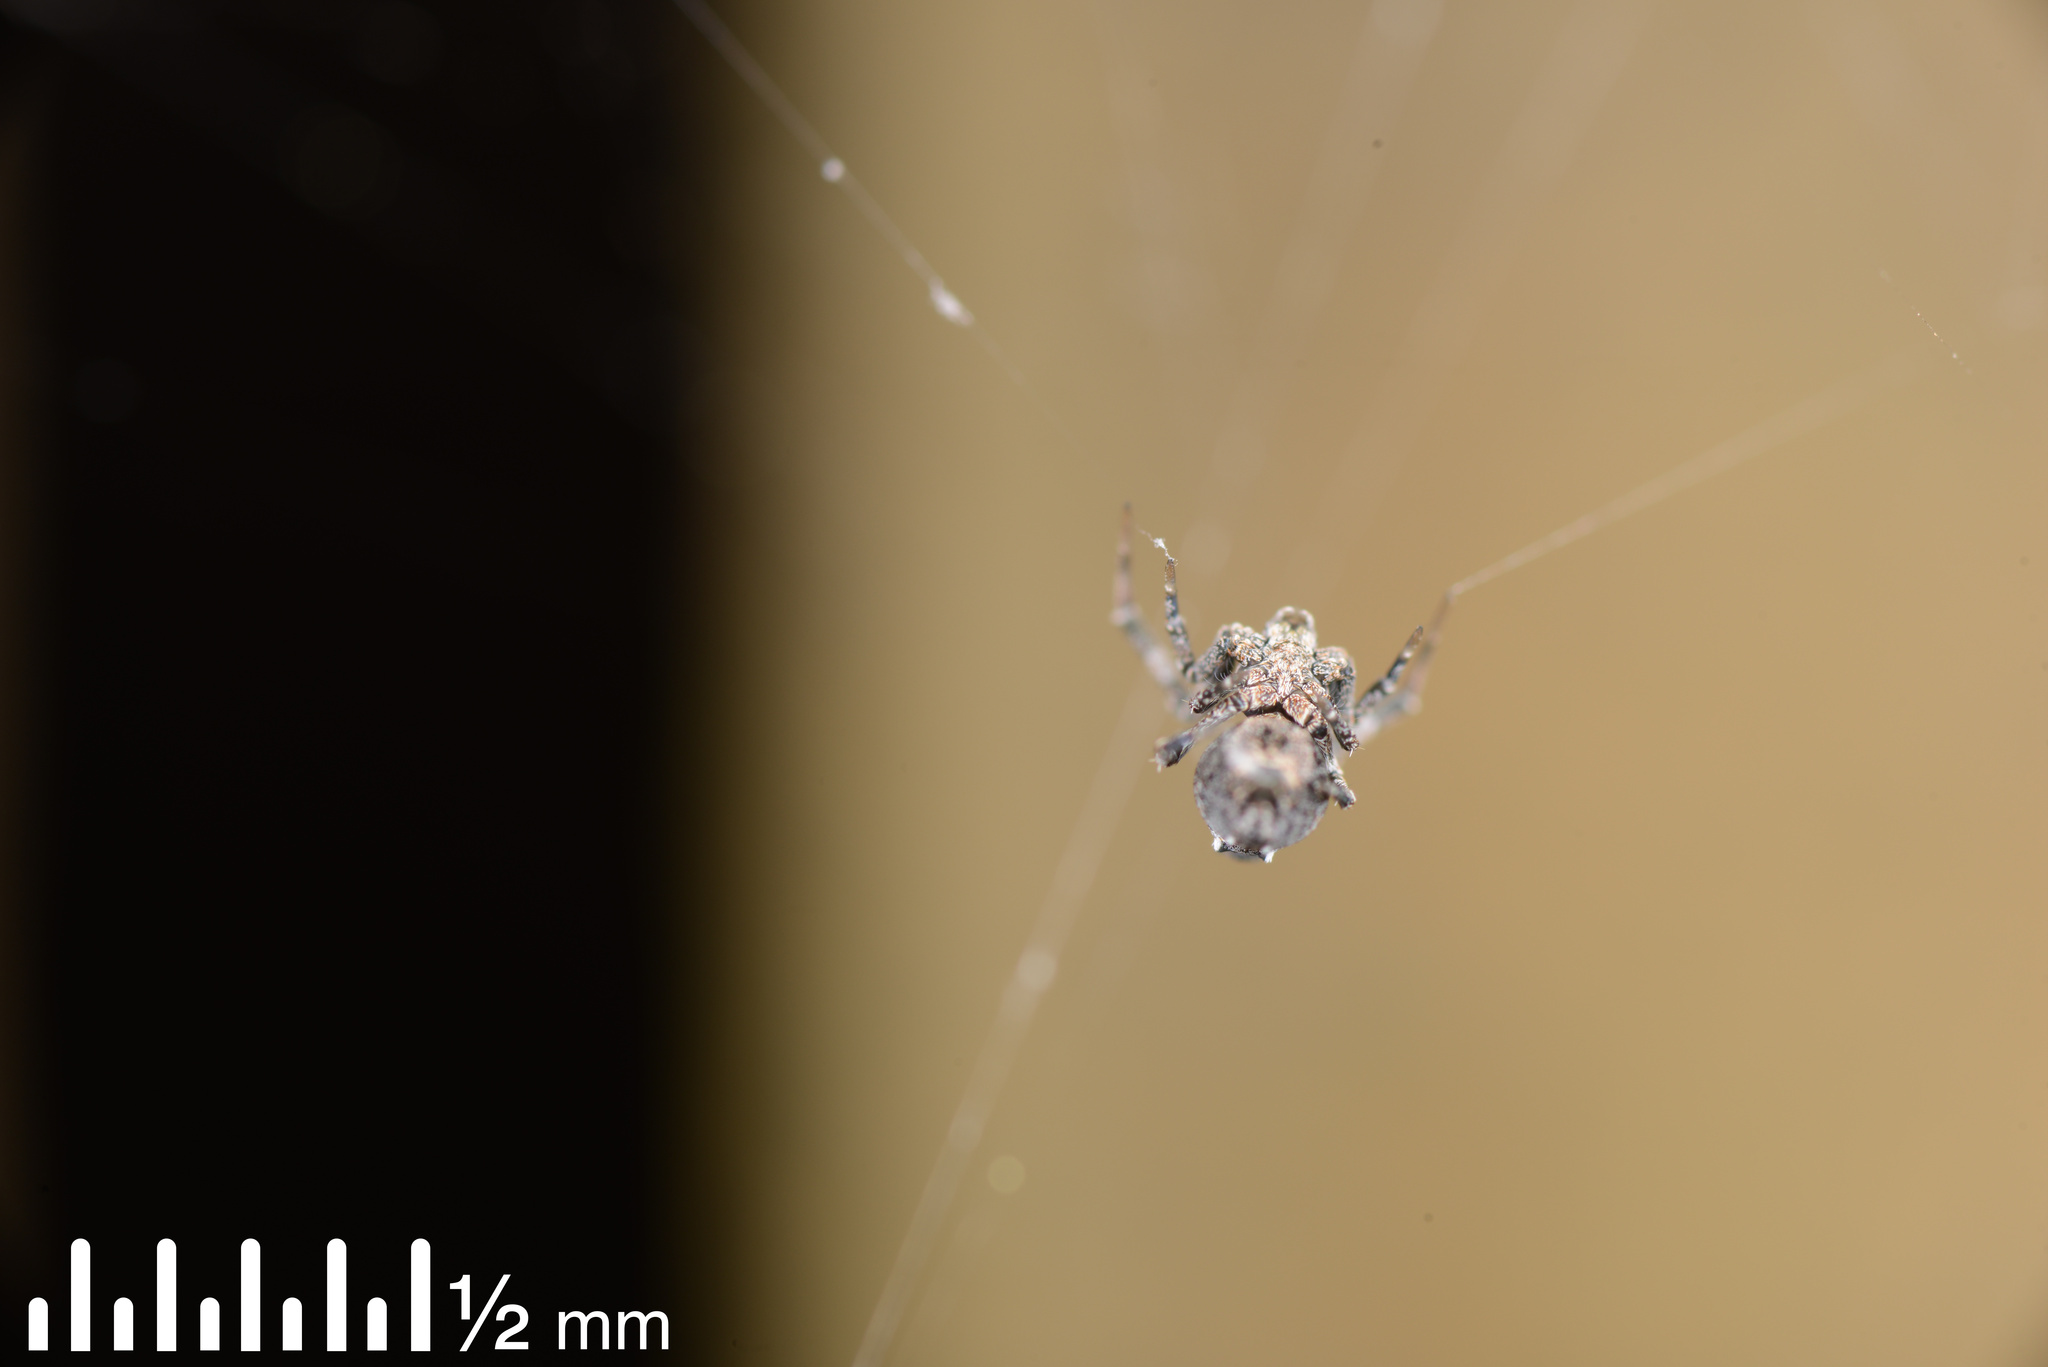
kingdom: Animalia
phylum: Arthropoda
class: Arachnida
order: Araneae
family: Uloboridae
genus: Philoponella
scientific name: Philoponella congregabilis
